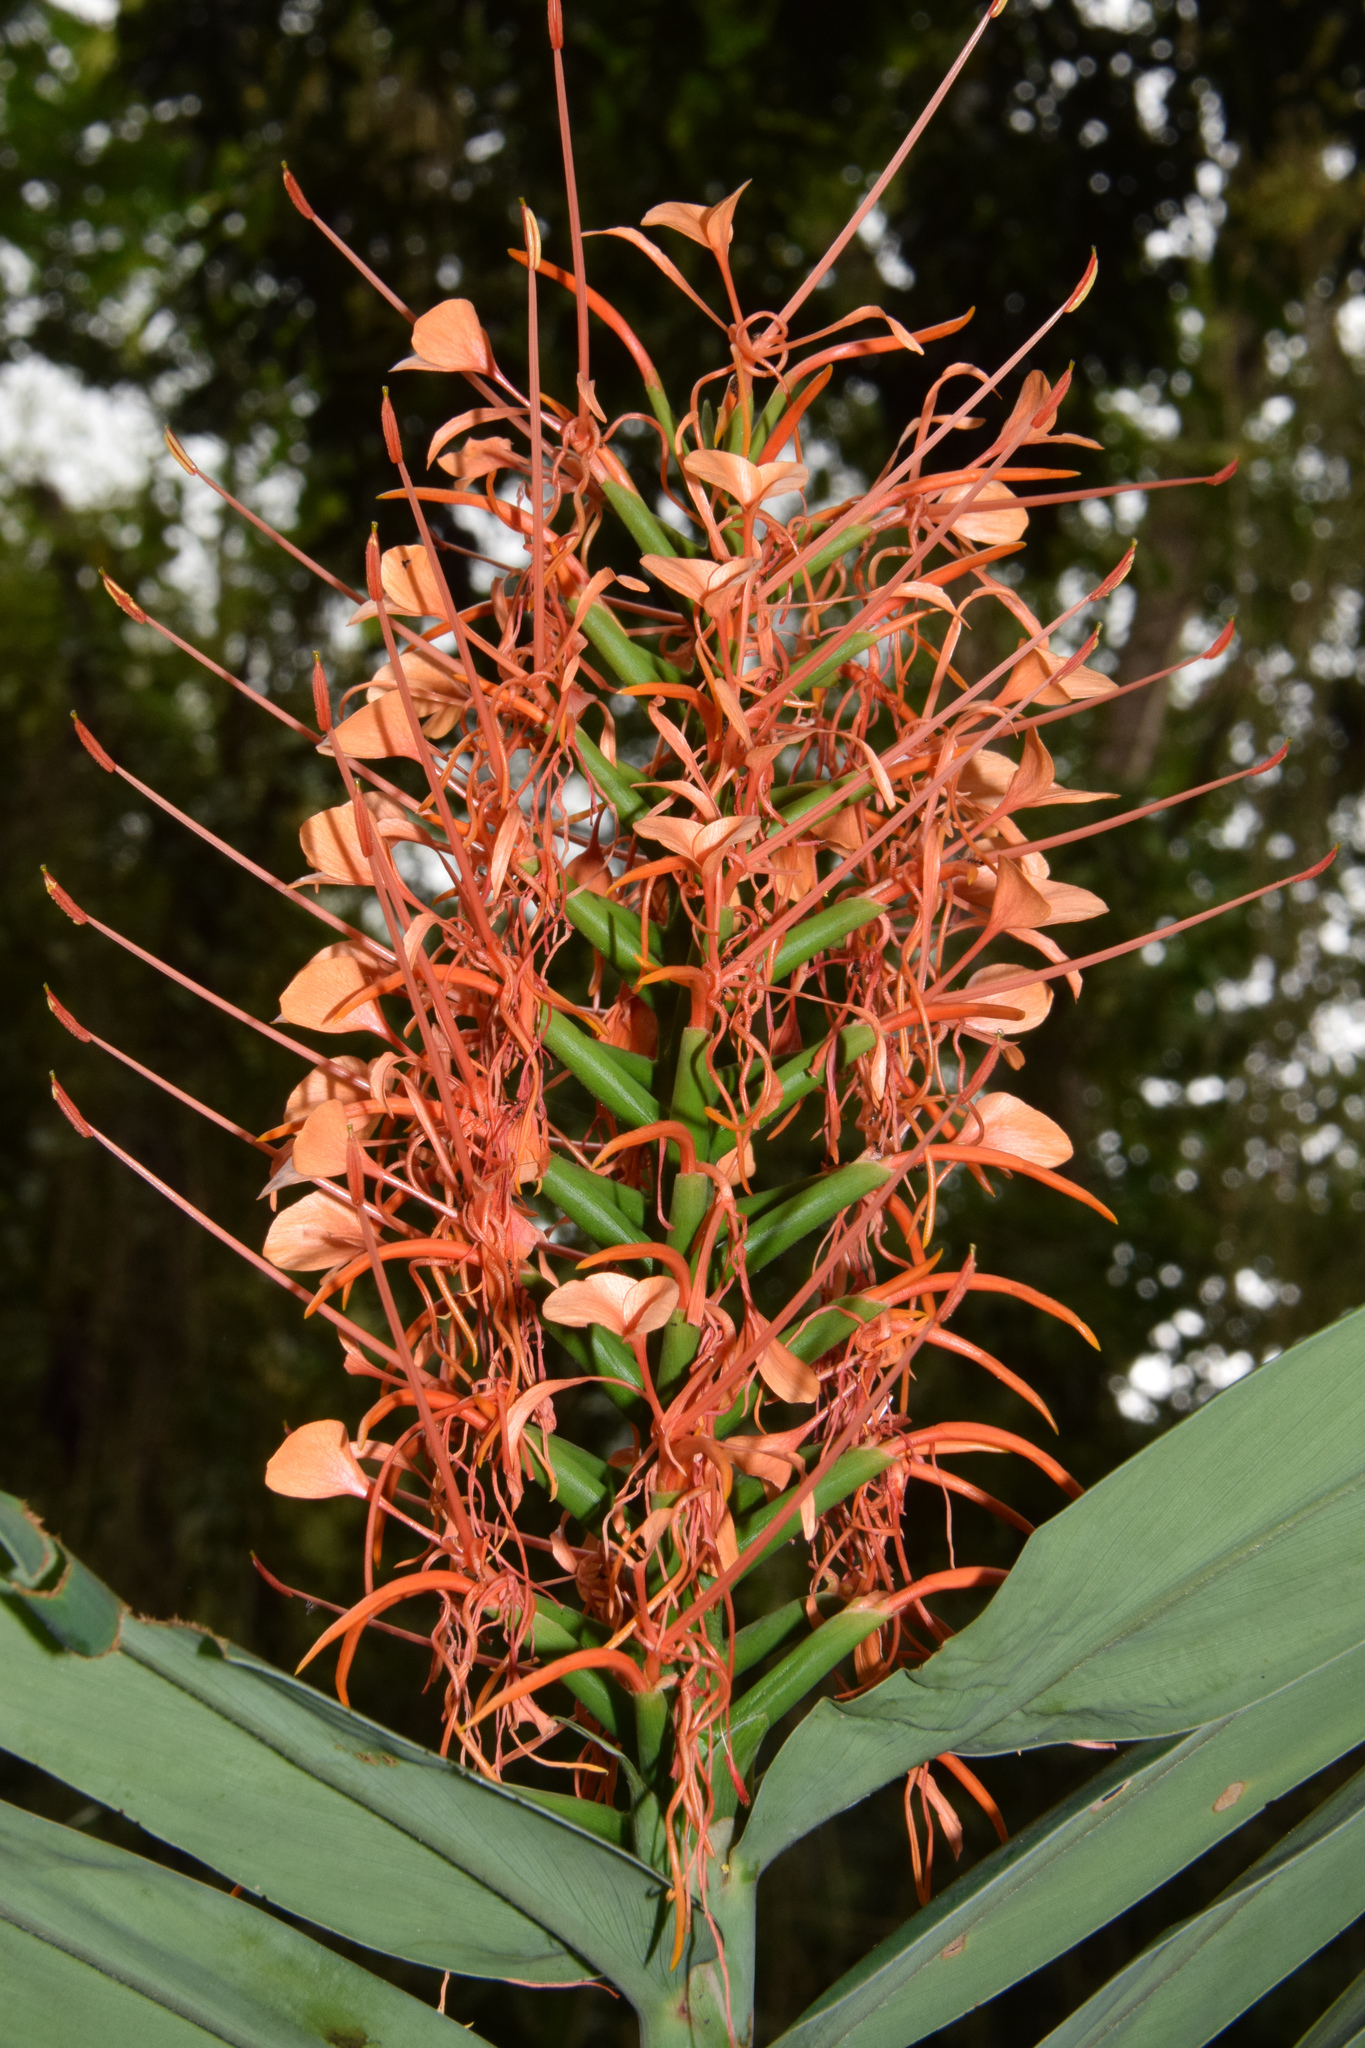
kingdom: Plantae
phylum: Tracheophyta
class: Liliopsida
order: Zingiberales
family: Zingiberaceae
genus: Hedychium
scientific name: Hedychium coccineum
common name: Red ginger-lily
